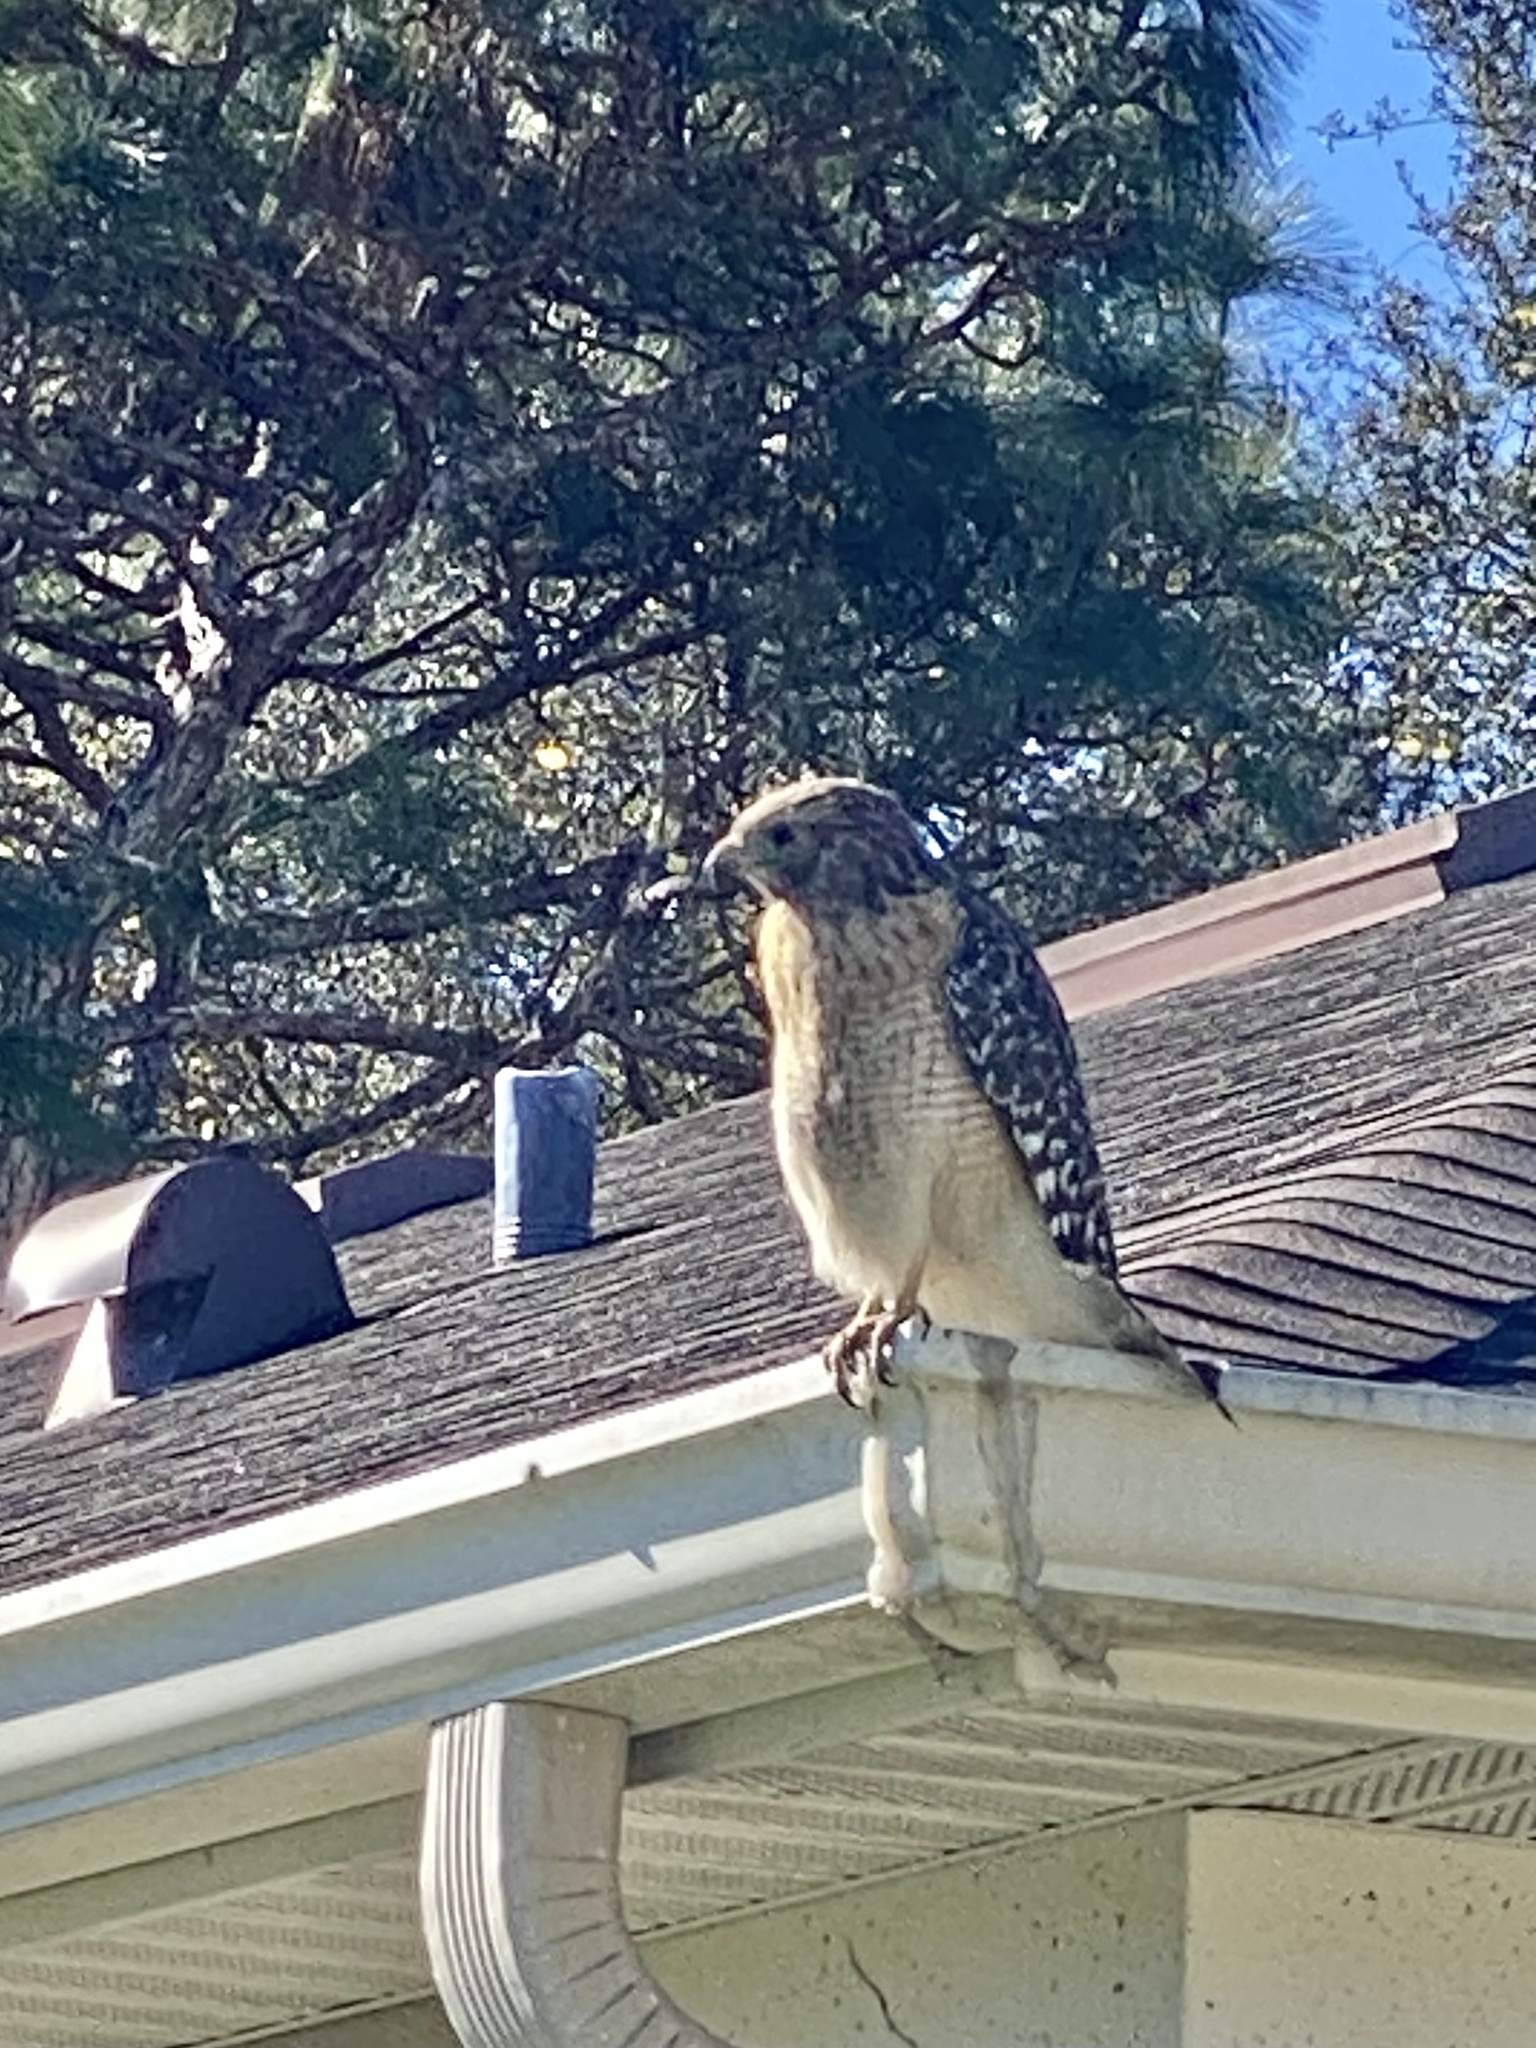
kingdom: Animalia
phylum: Chordata
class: Aves
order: Accipitriformes
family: Accipitridae
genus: Buteo
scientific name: Buteo lineatus
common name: Red-shouldered hawk
